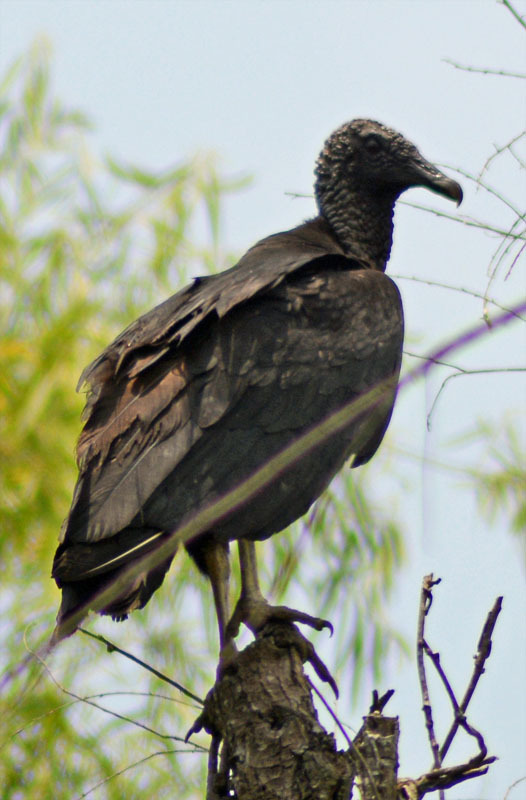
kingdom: Animalia
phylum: Chordata
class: Aves
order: Accipitriformes
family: Cathartidae
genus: Coragyps
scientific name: Coragyps atratus
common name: Black vulture
